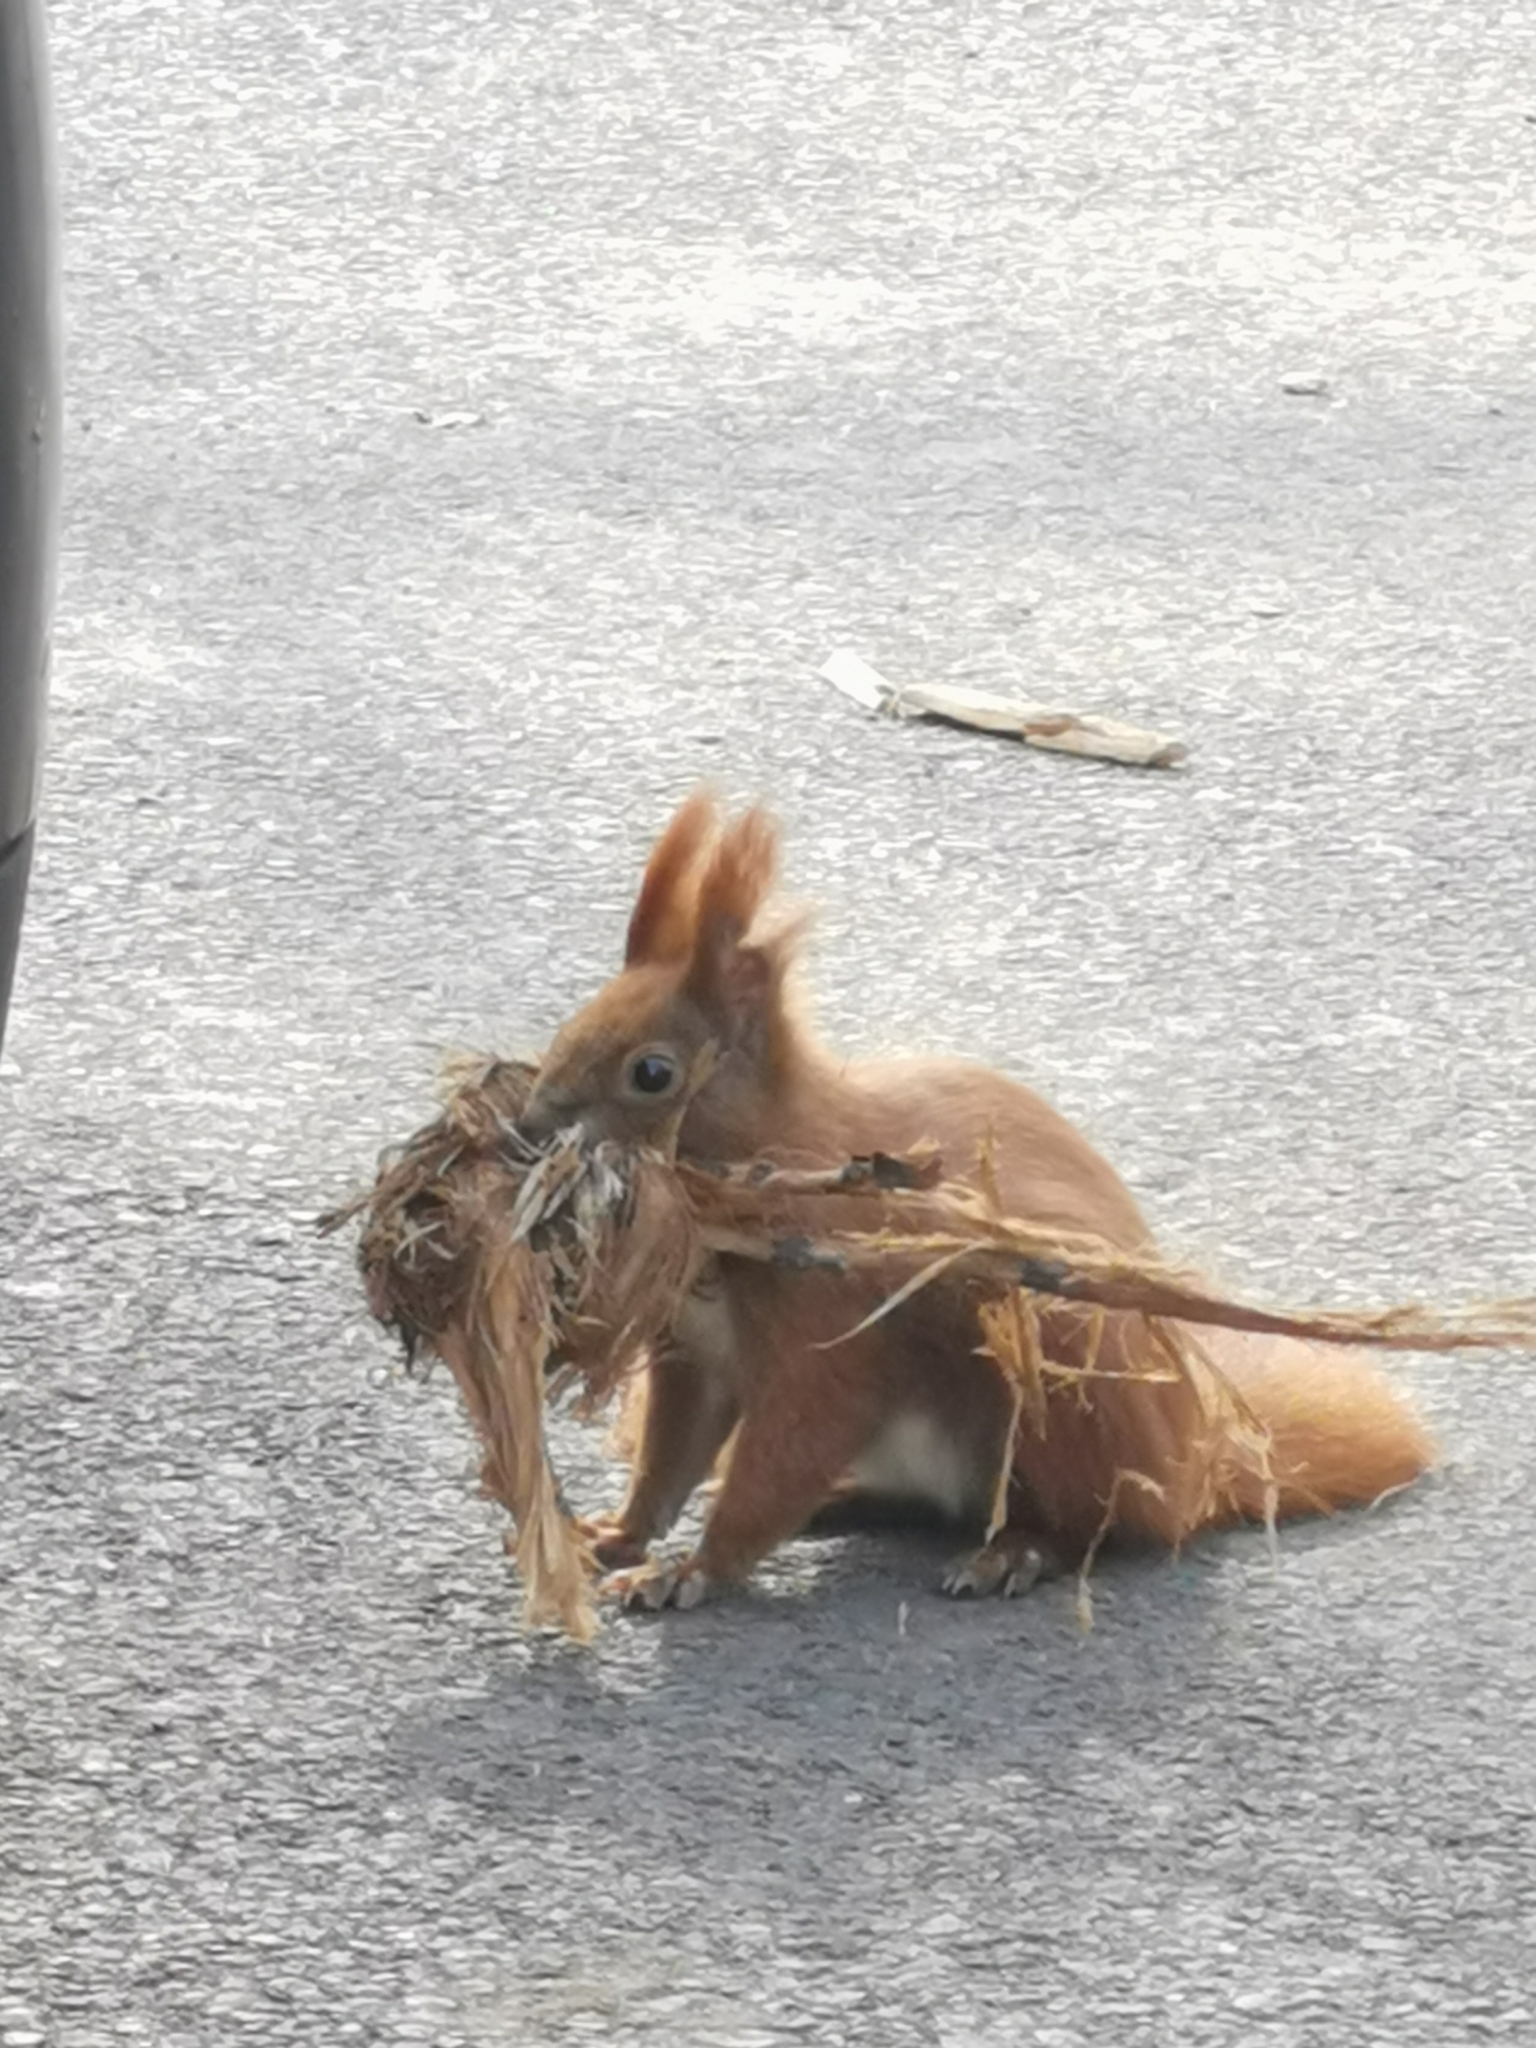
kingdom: Animalia
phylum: Chordata
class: Mammalia
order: Rodentia
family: Sciuridae
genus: Sciurus
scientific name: Sciurus vulgaris
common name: Eurasian red squirrel
